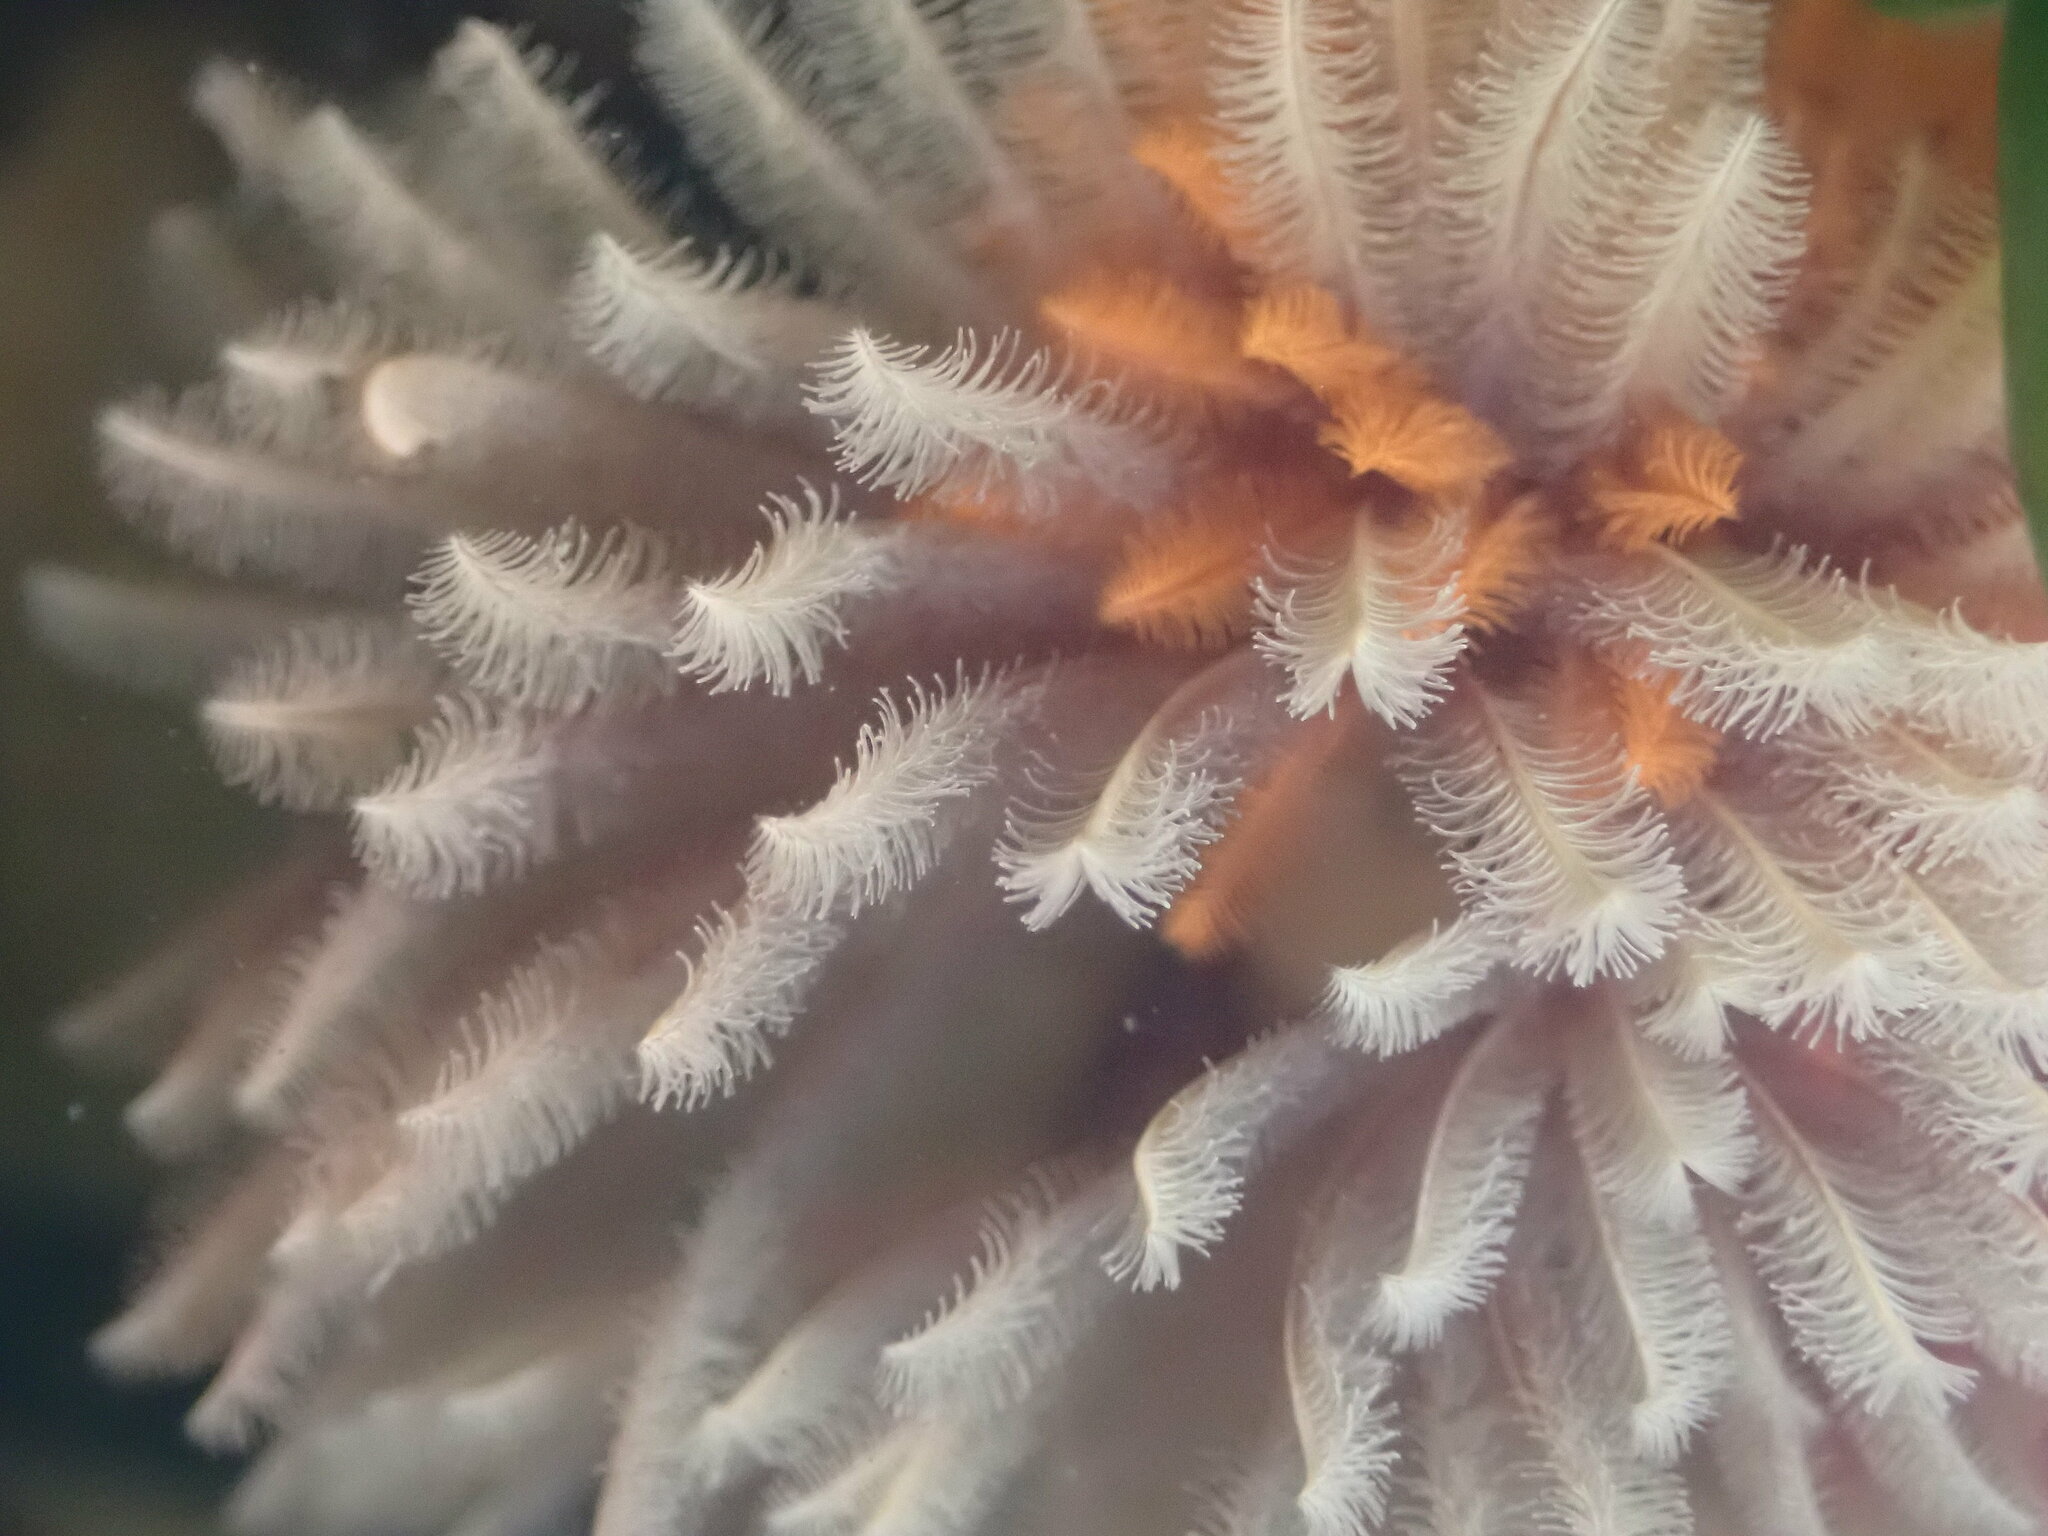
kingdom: Animalia
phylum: Annelida
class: Polychaeta
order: Sabellida
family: Sabellidae
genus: Eudistylia
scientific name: Eudistylia polymorpha
